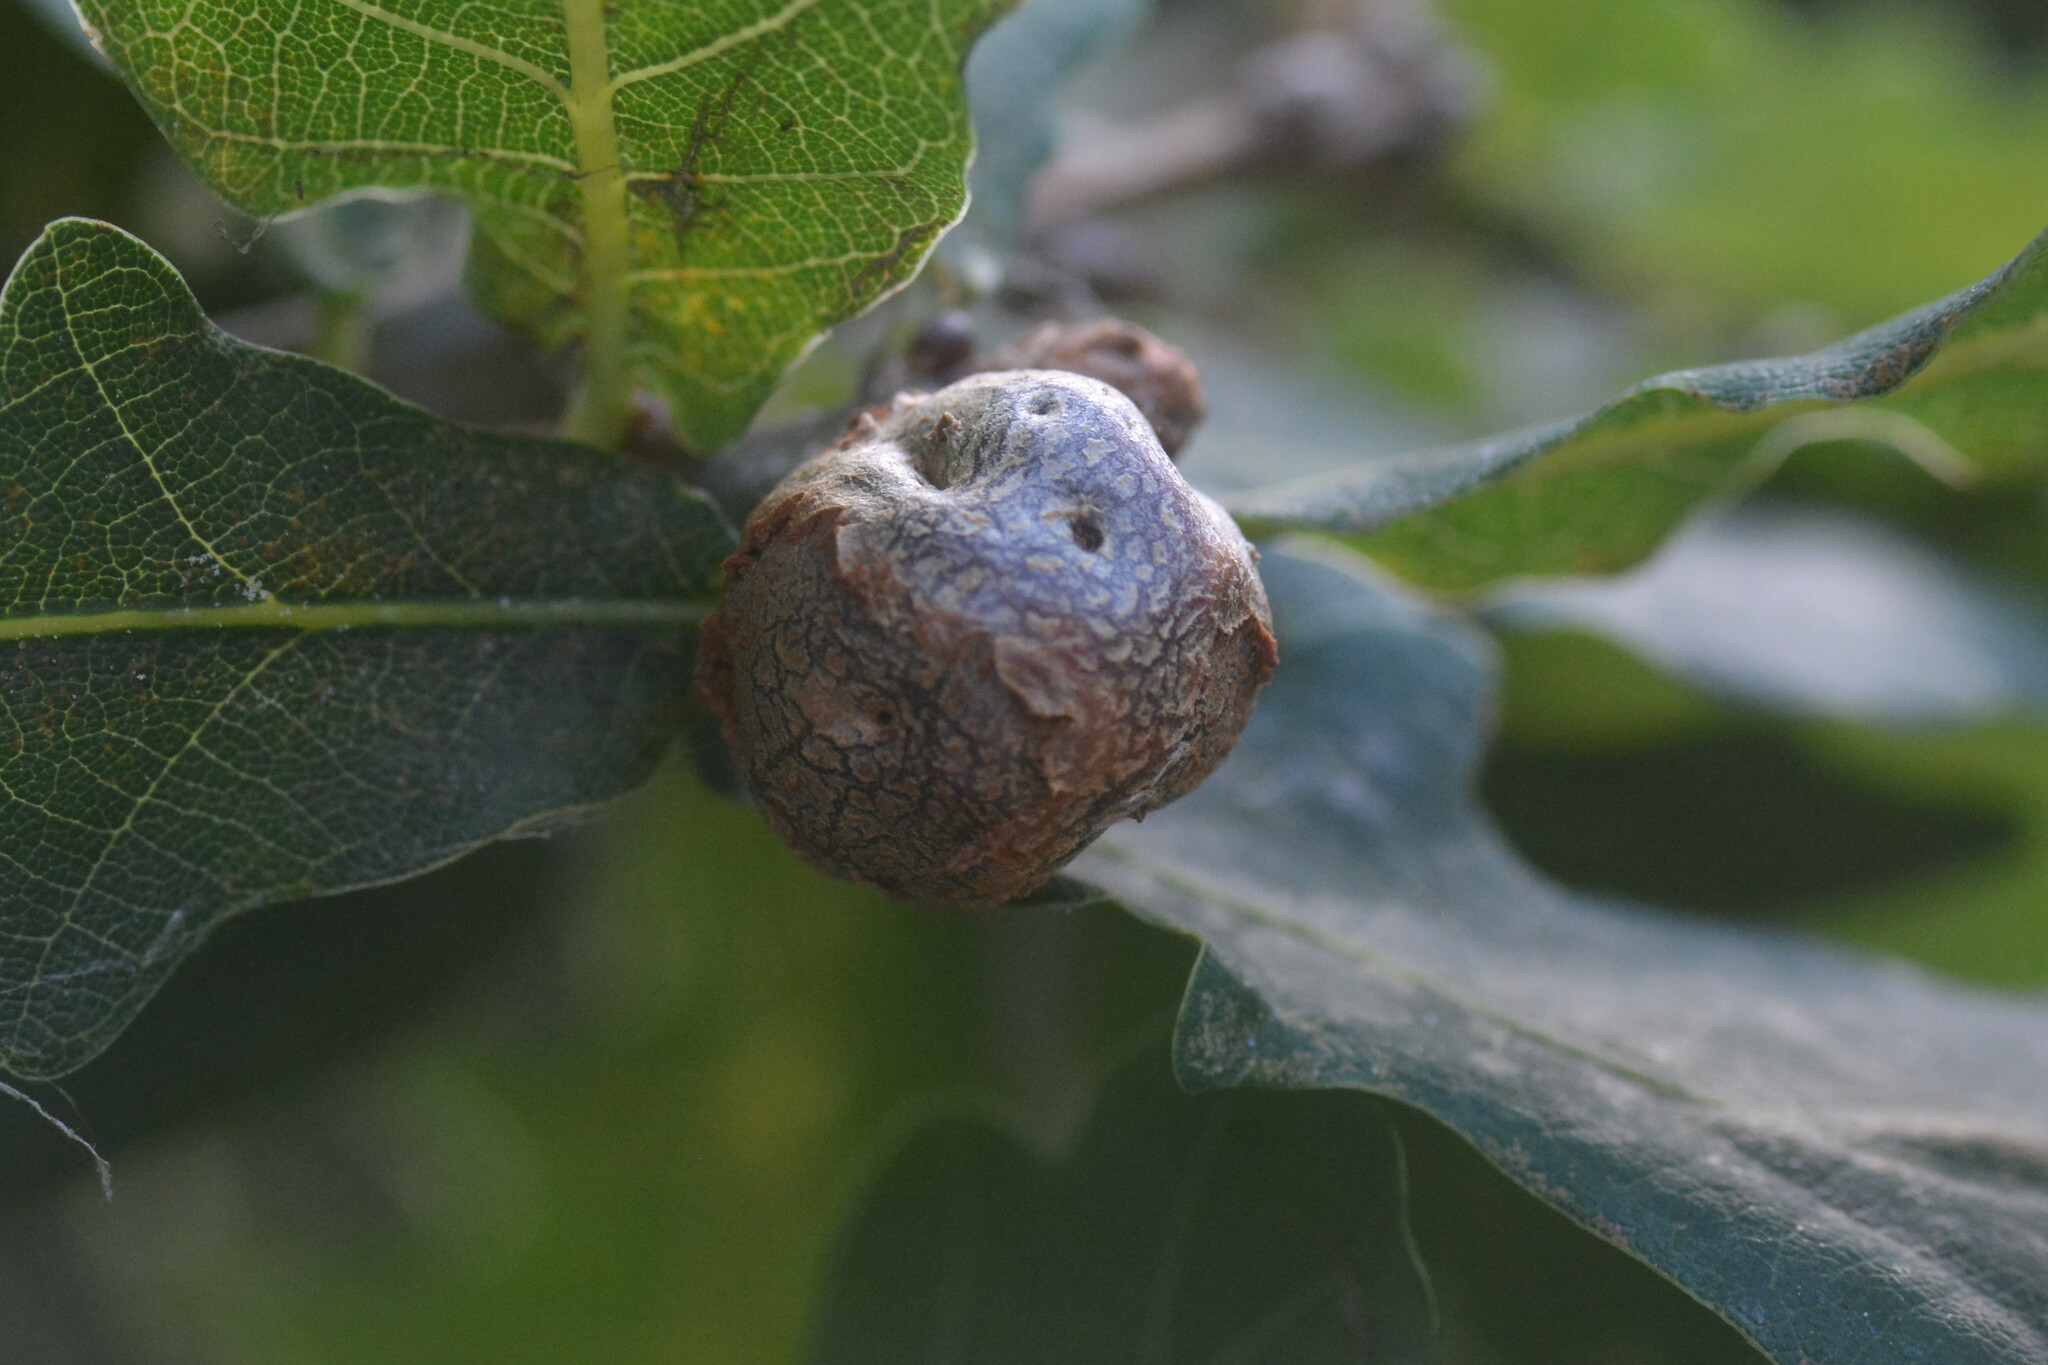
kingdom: Animalia
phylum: Arthropoda
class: Insecta
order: Hymenoptera
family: Cynipidae
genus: Andricus
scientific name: Andricus lignicolus
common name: Cola-nut gall
